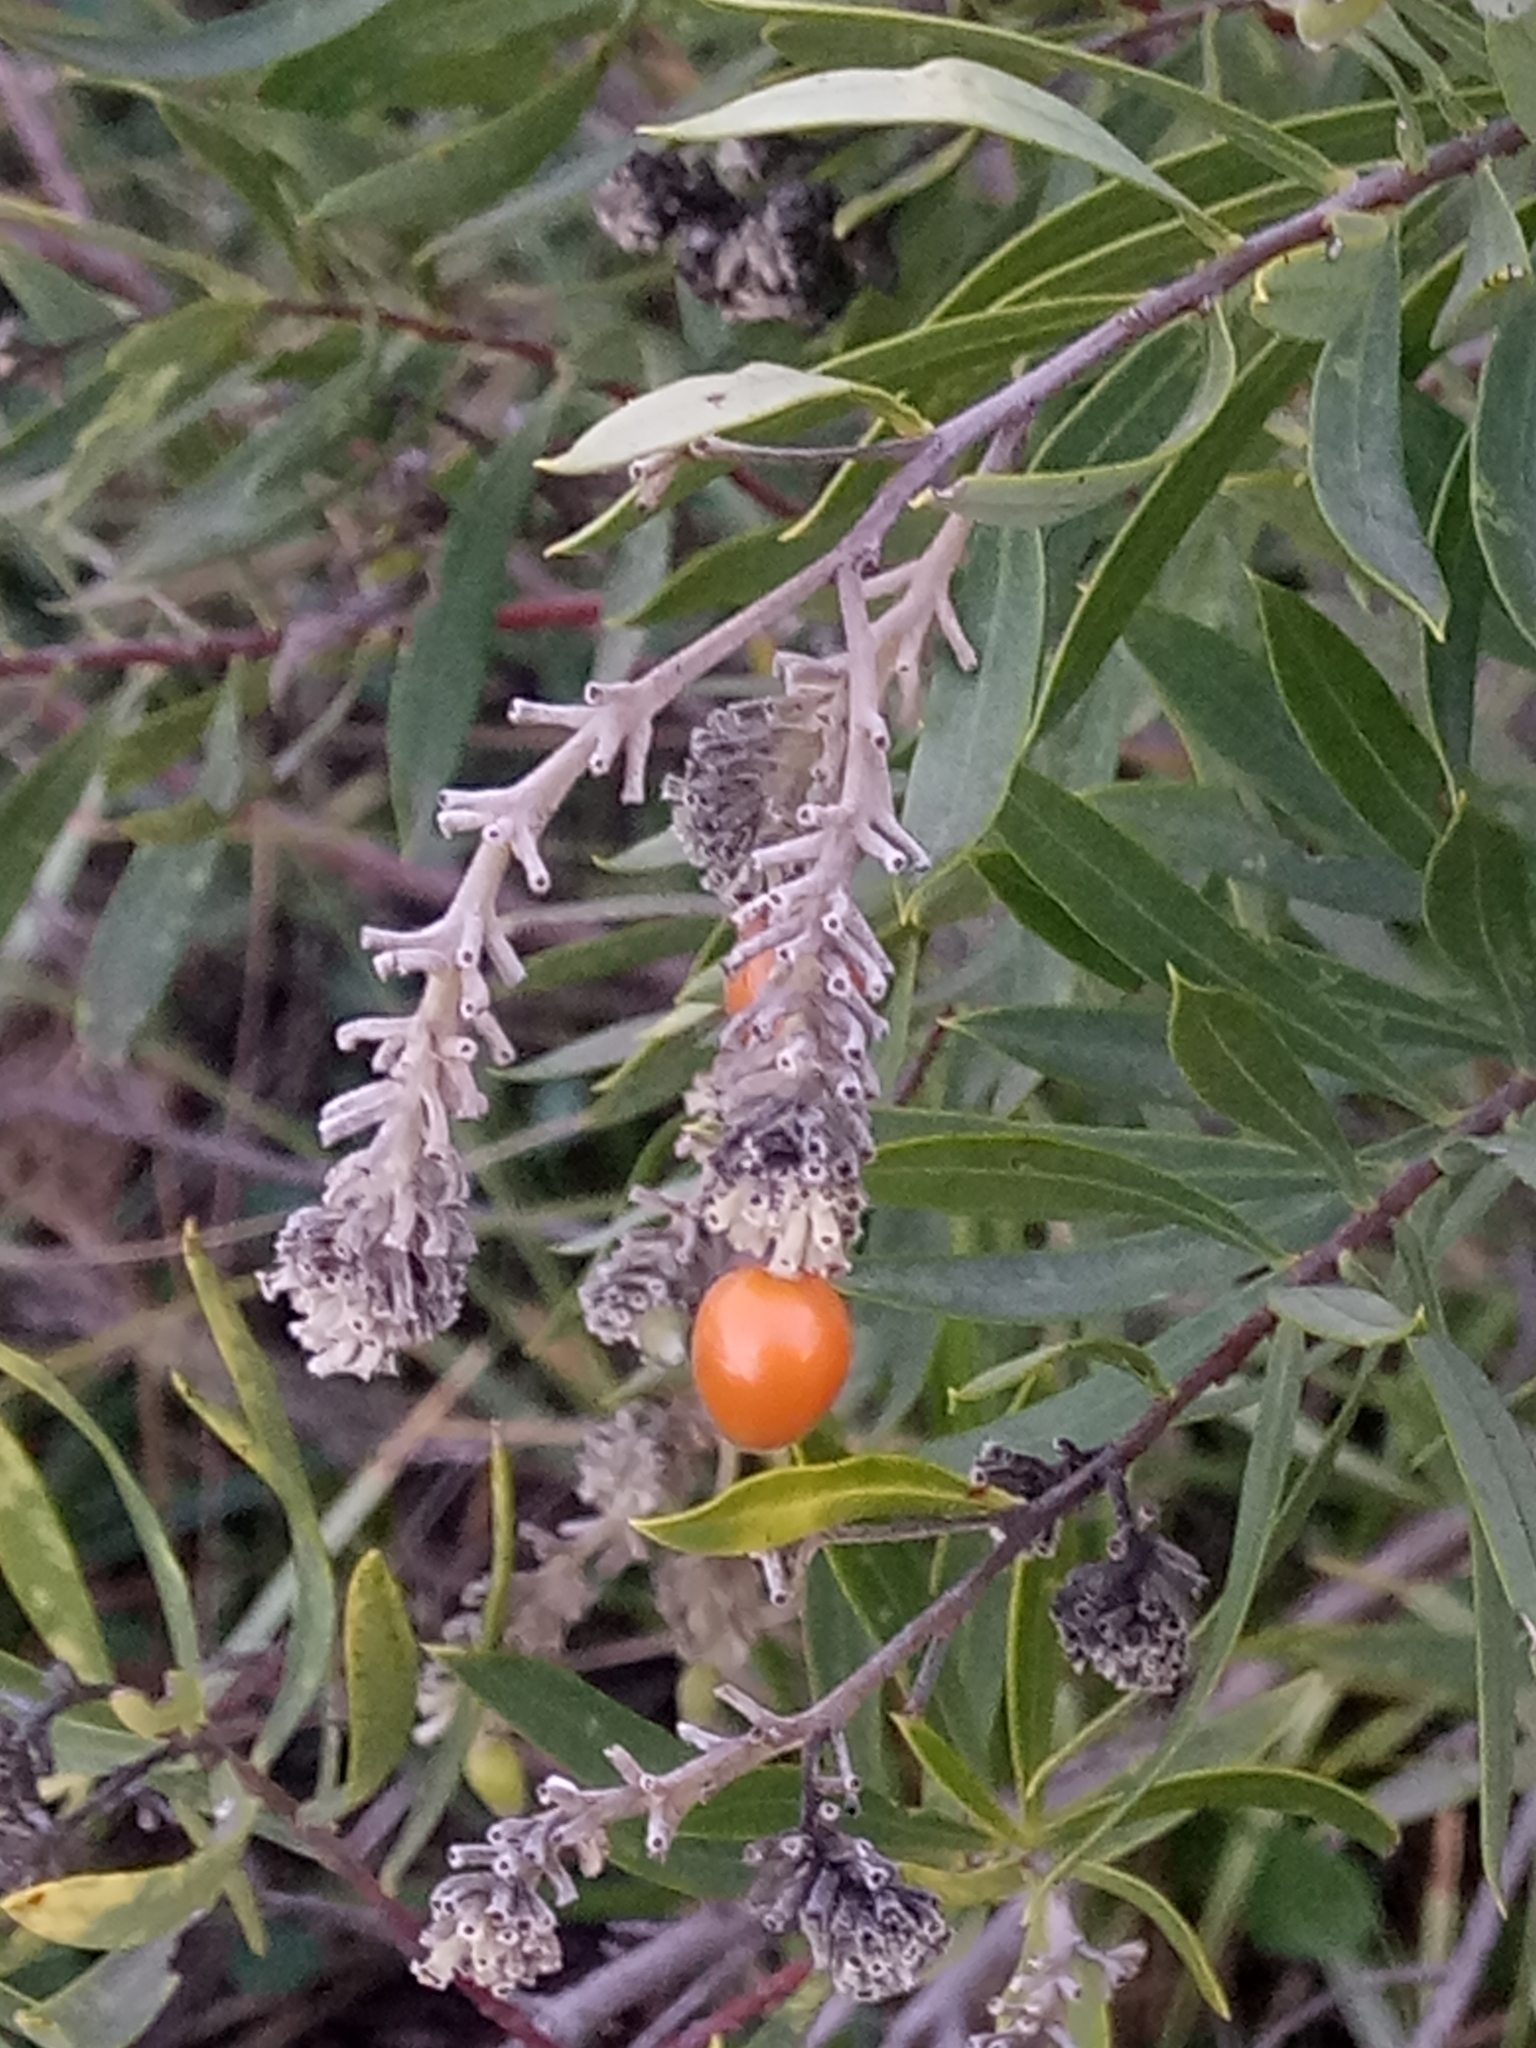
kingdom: Plantae
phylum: Tracheophyta
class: Magnoliopsida
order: Malvales
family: Thymelaeaceae
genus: Daphne
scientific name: Daphne gnidium
